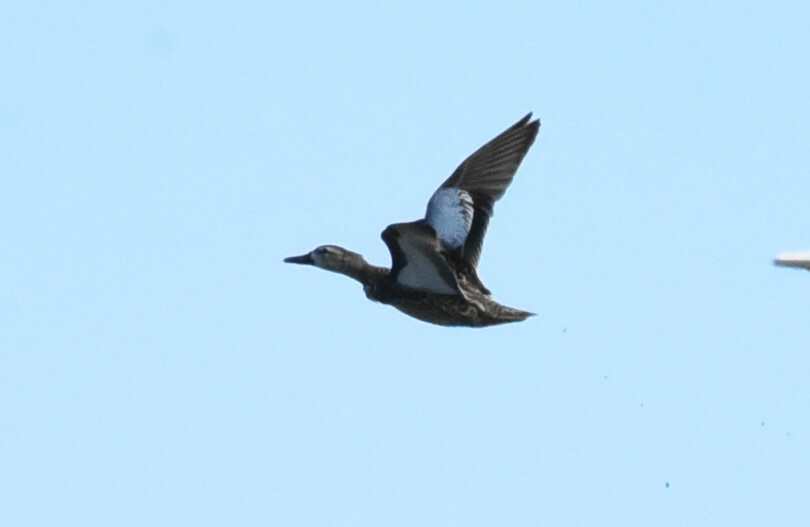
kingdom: Animalia
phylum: Chordata
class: Aves
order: Anseriformes
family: Anatidae
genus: Spatula
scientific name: Spatula discors
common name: Blue-winged teal
